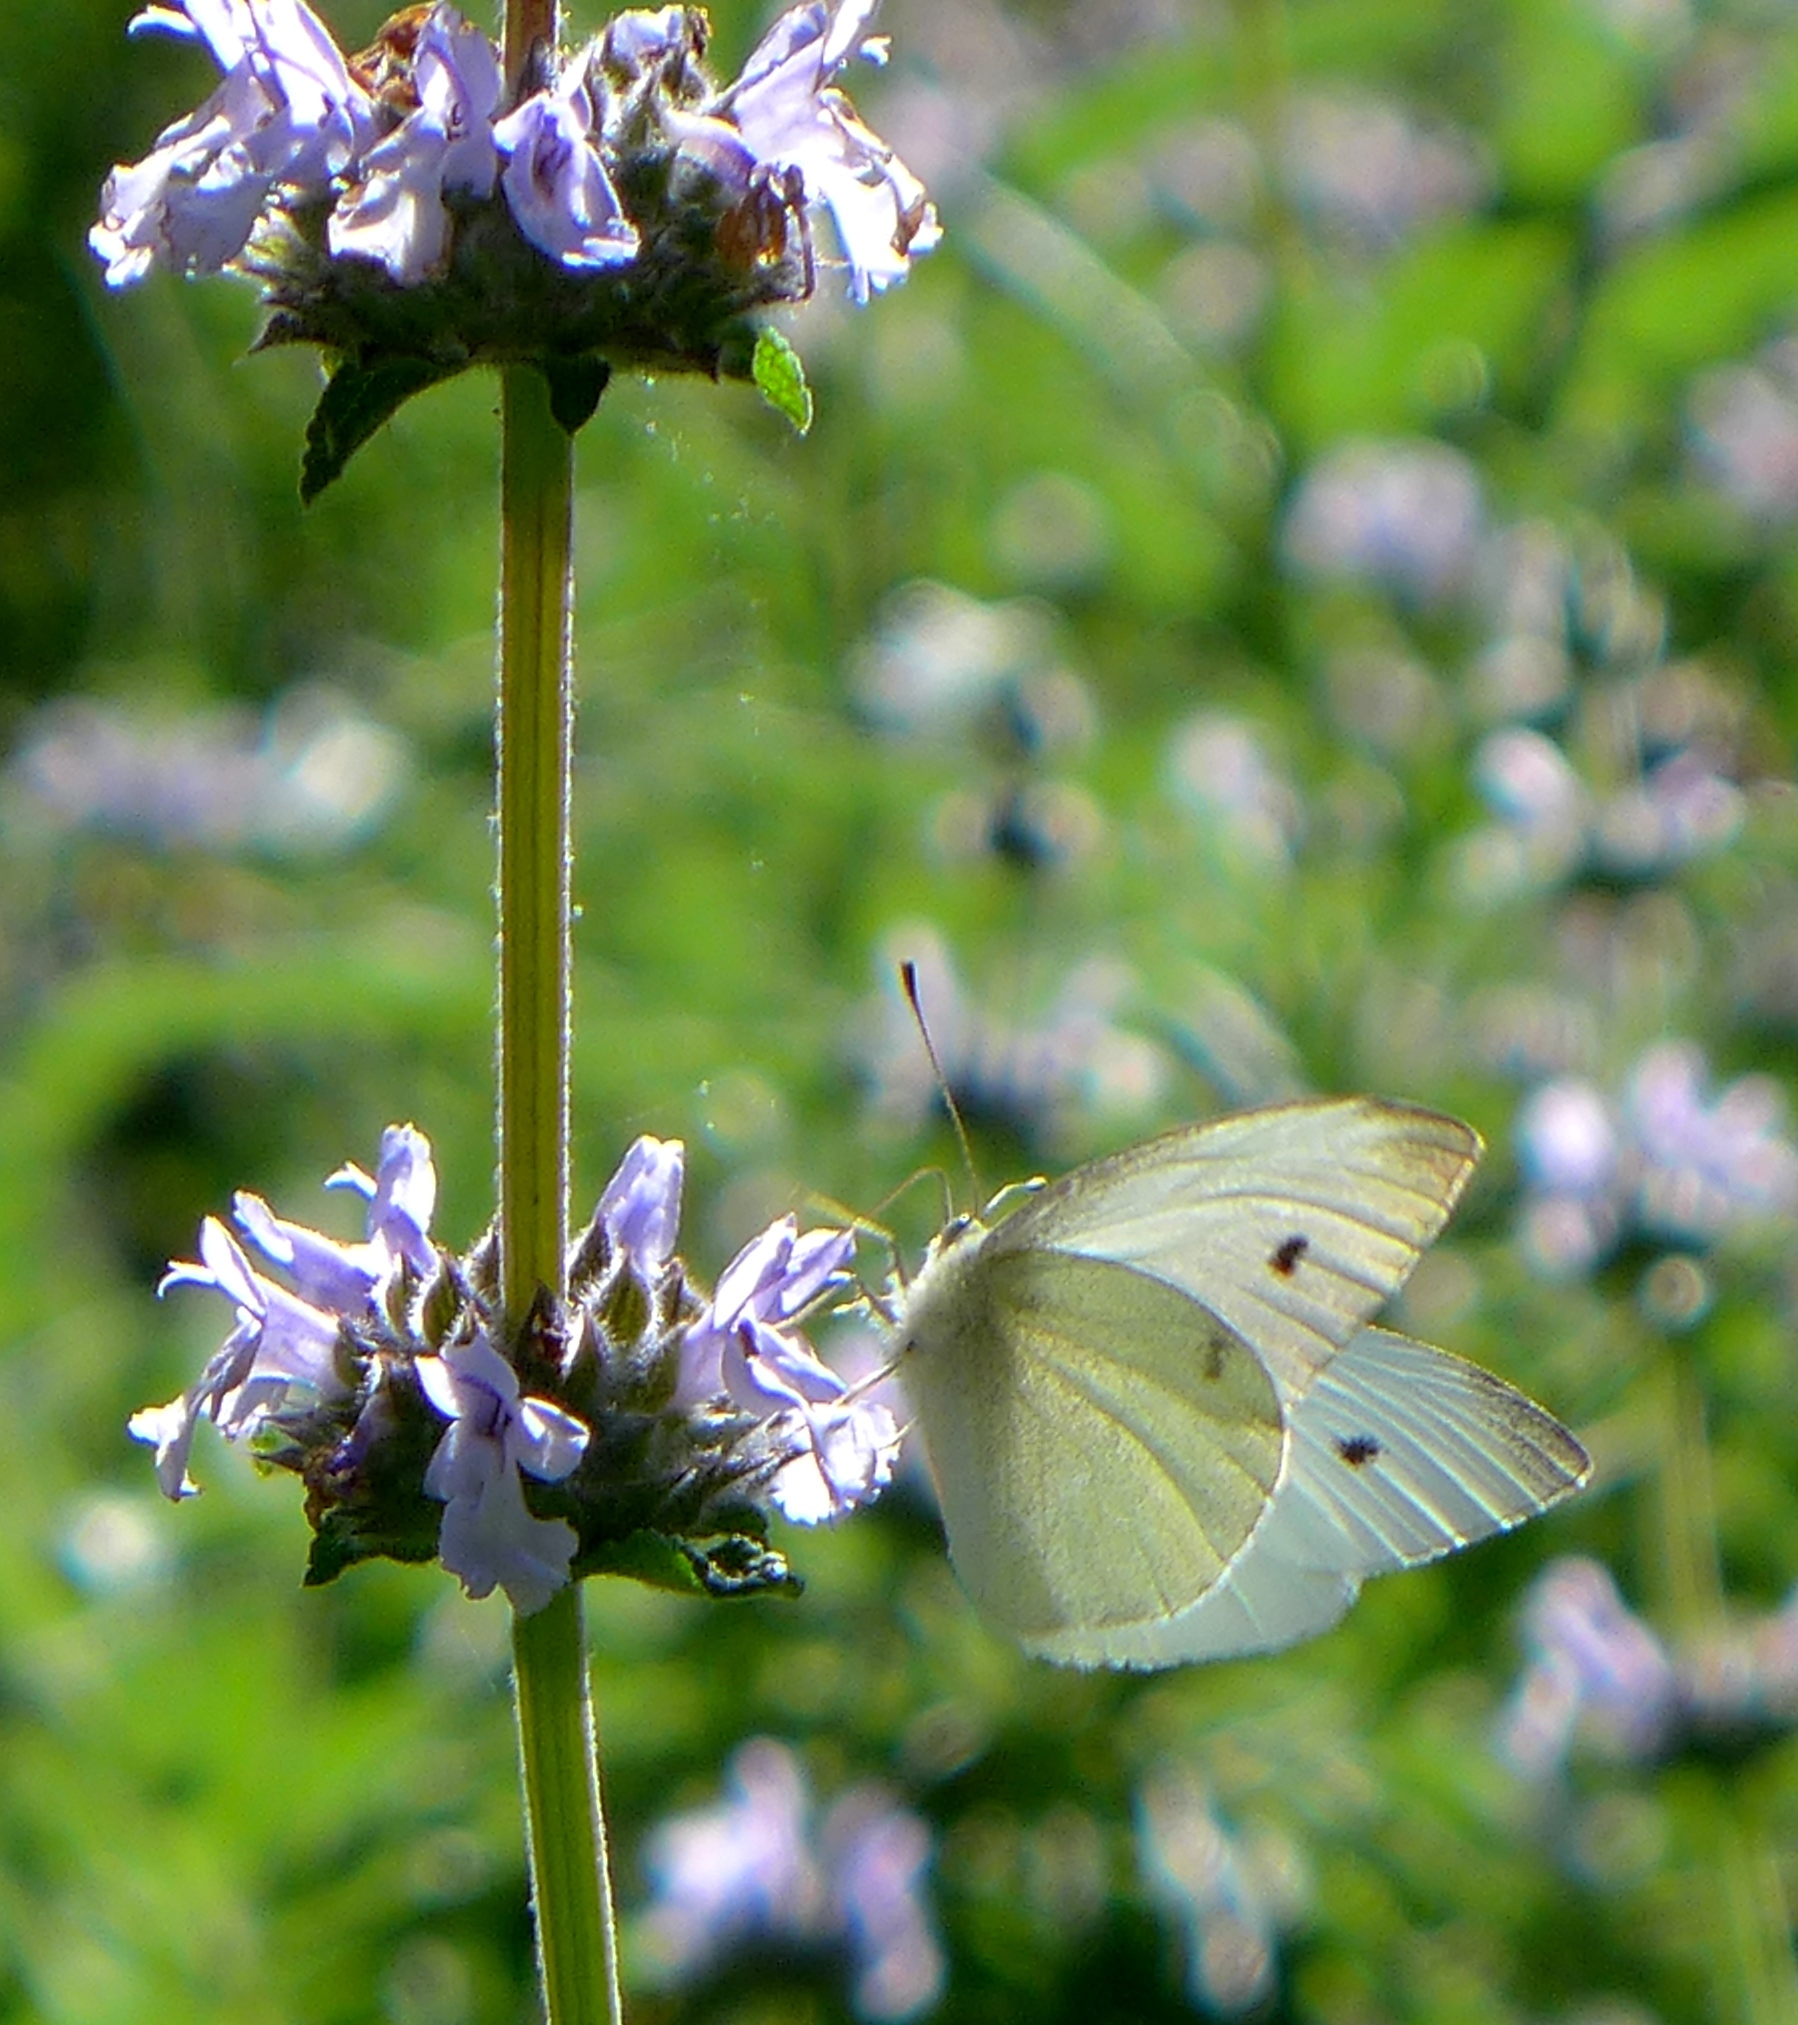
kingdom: Animalia
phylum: Arthropoda
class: Insecta
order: Lepidoptera
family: Pieridae
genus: Pieris
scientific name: Pieris rapae
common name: Small white
